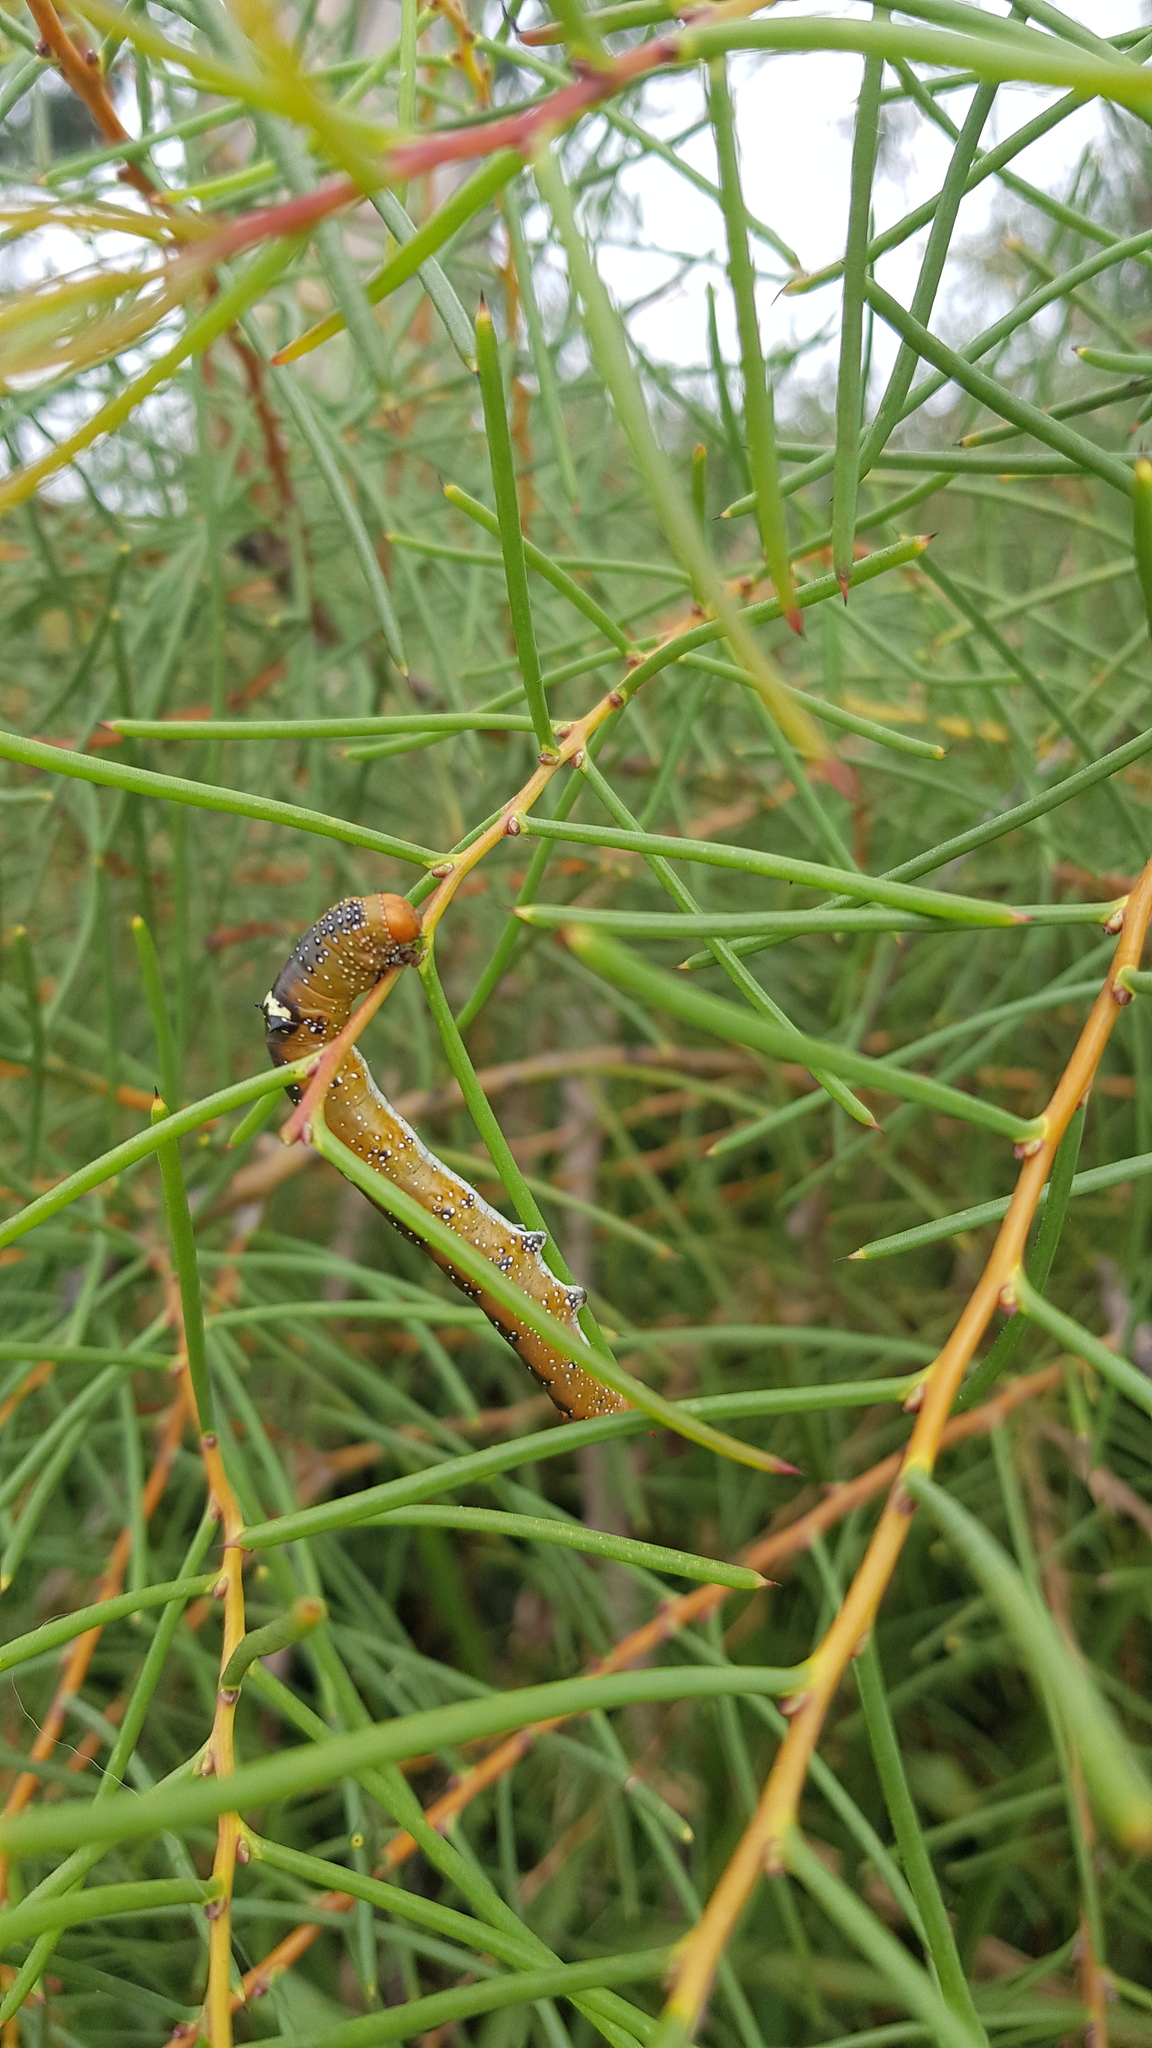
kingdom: Animalia
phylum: Arthropoda
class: Insecta
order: Lepidoptera
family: Geometridae
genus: Oenochroma
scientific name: Oenochroma vinaria
